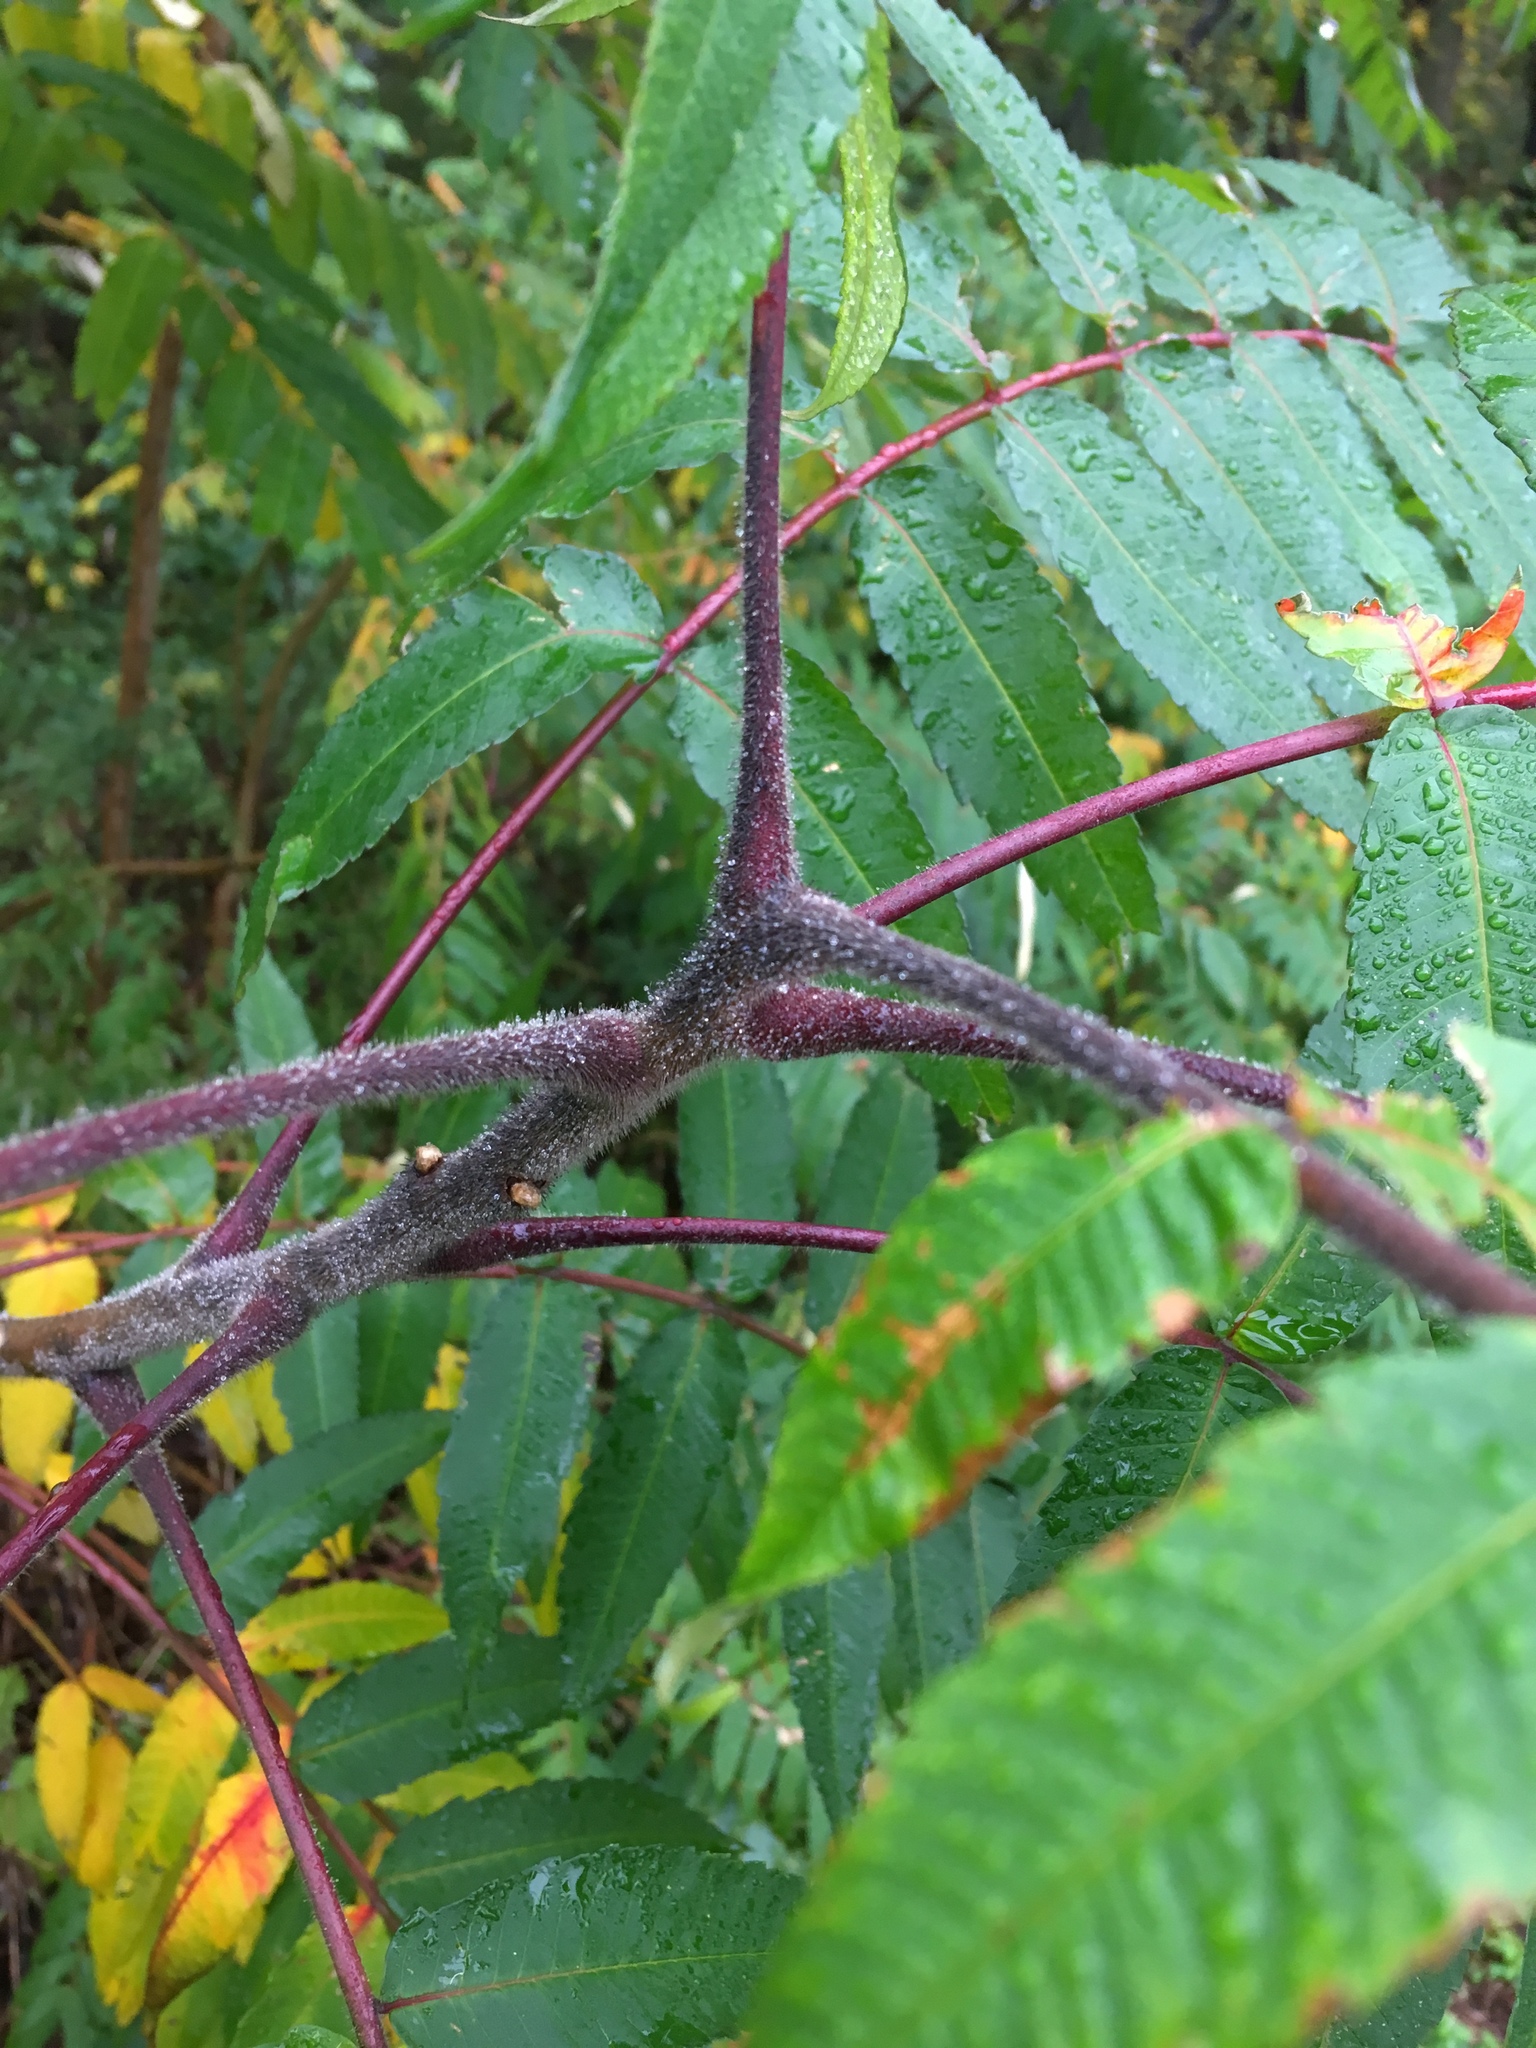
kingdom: Plantae
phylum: Tracheophyta
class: Magnoliopsida
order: Sapindales
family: Anacardiaceae
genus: Rhus
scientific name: Rhus typhina
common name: Staghorn sumac
